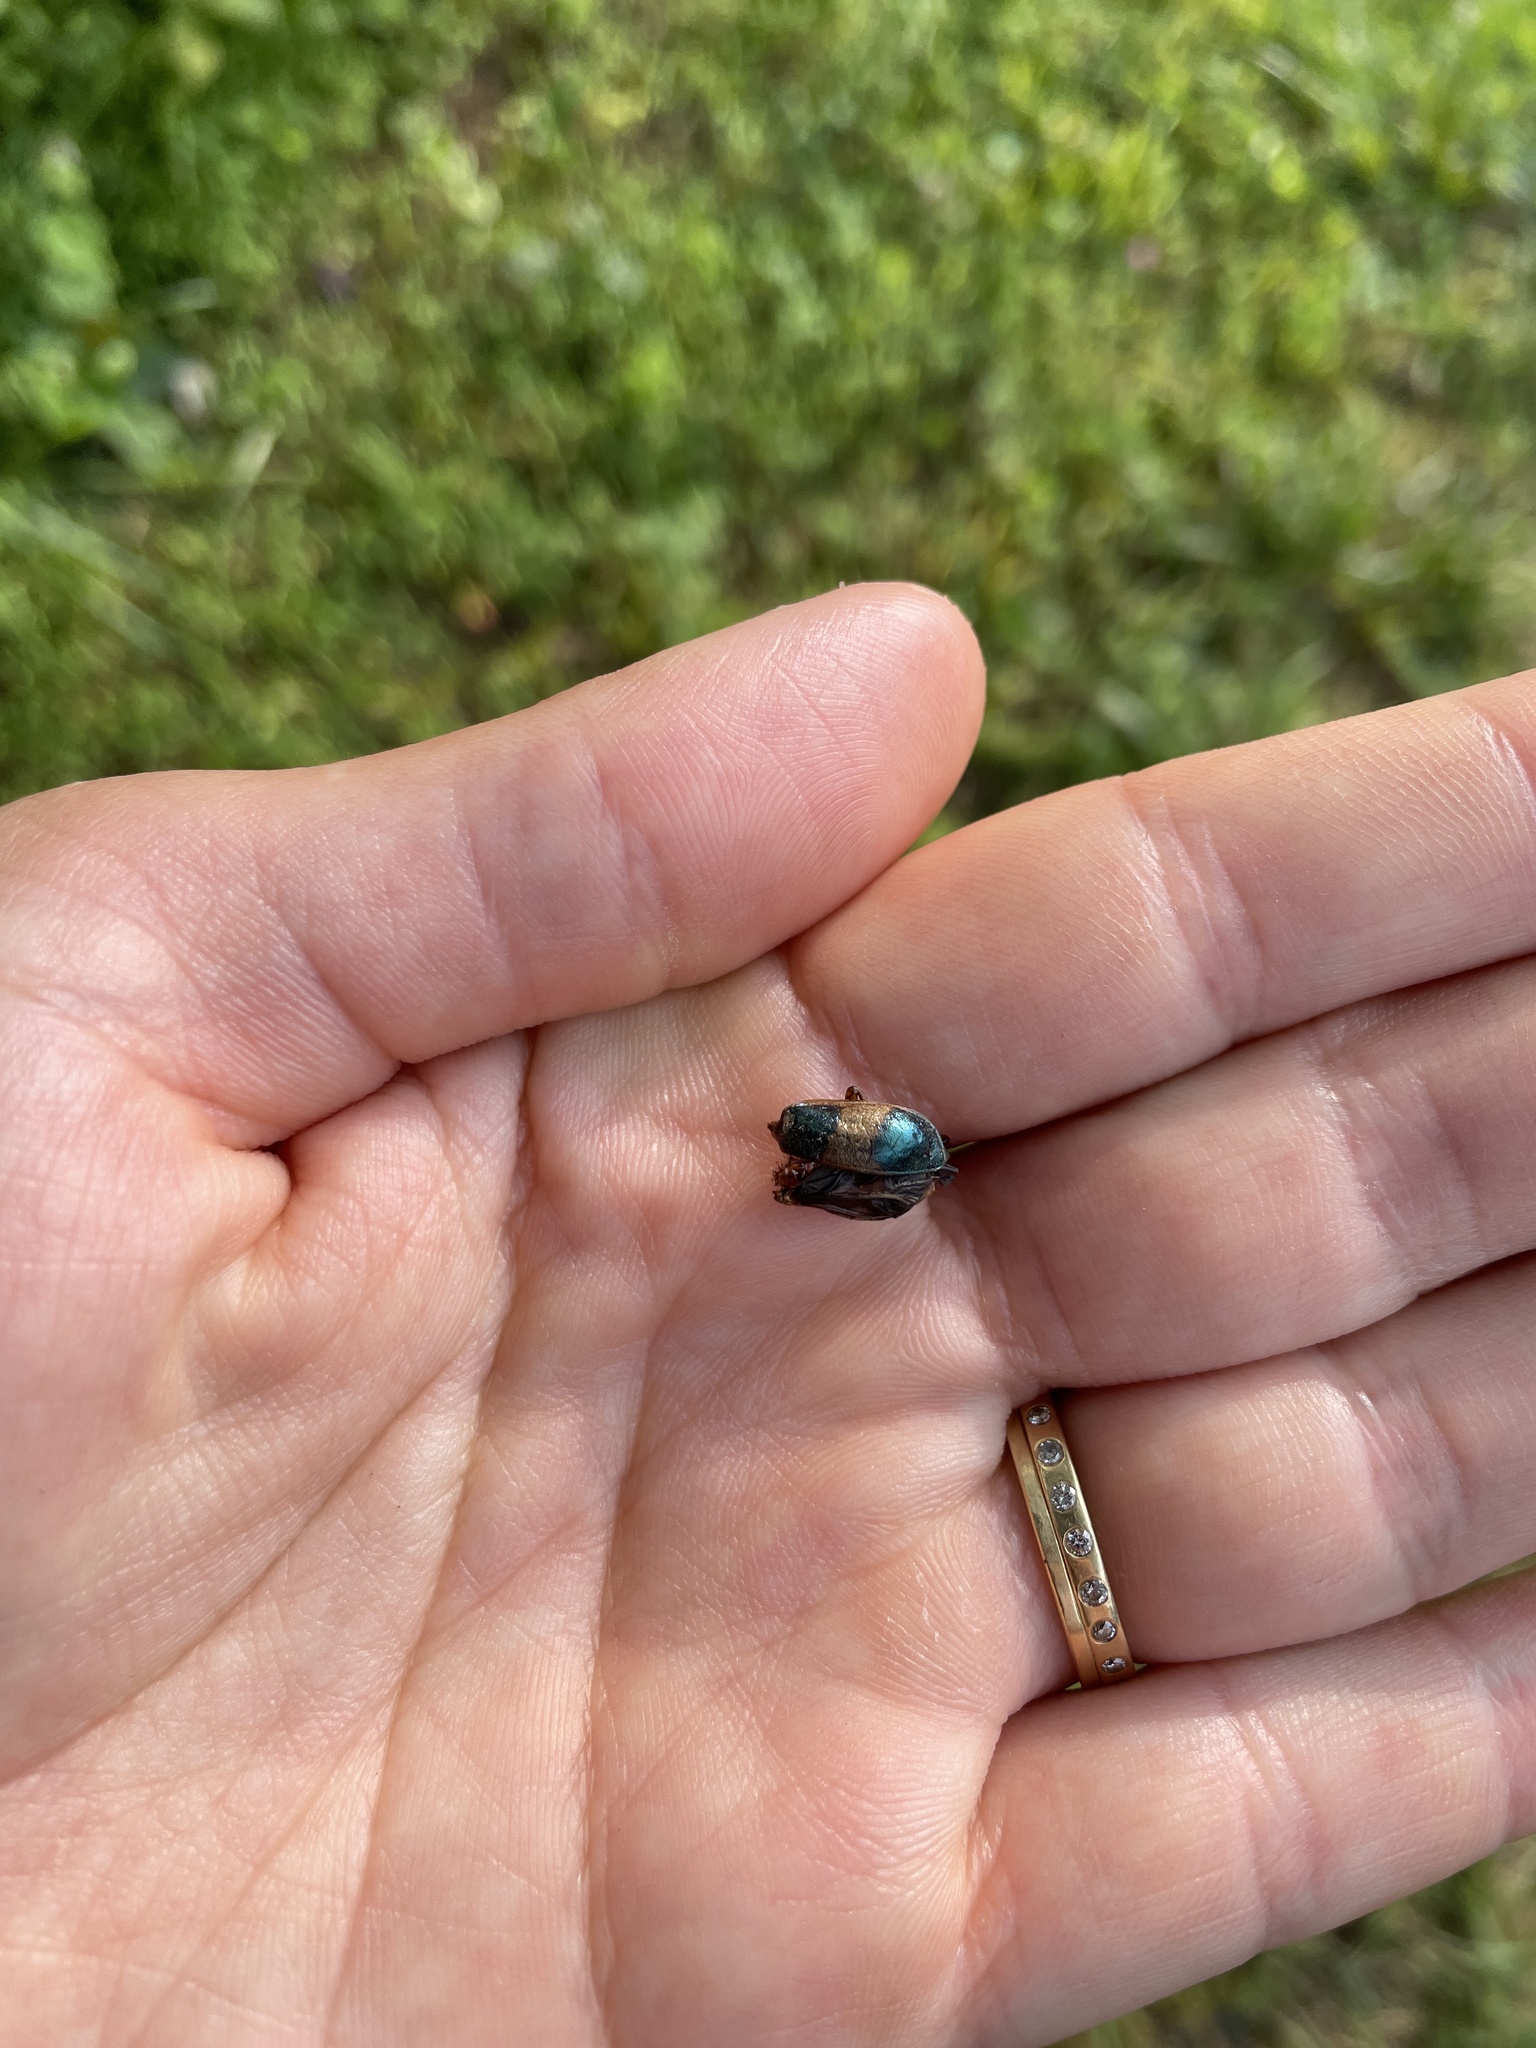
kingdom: Animalia
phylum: Arthropoda
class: Insecta
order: Coleoptera
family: Chrysomelidae
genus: Monocesta
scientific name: Monocesta coryli
